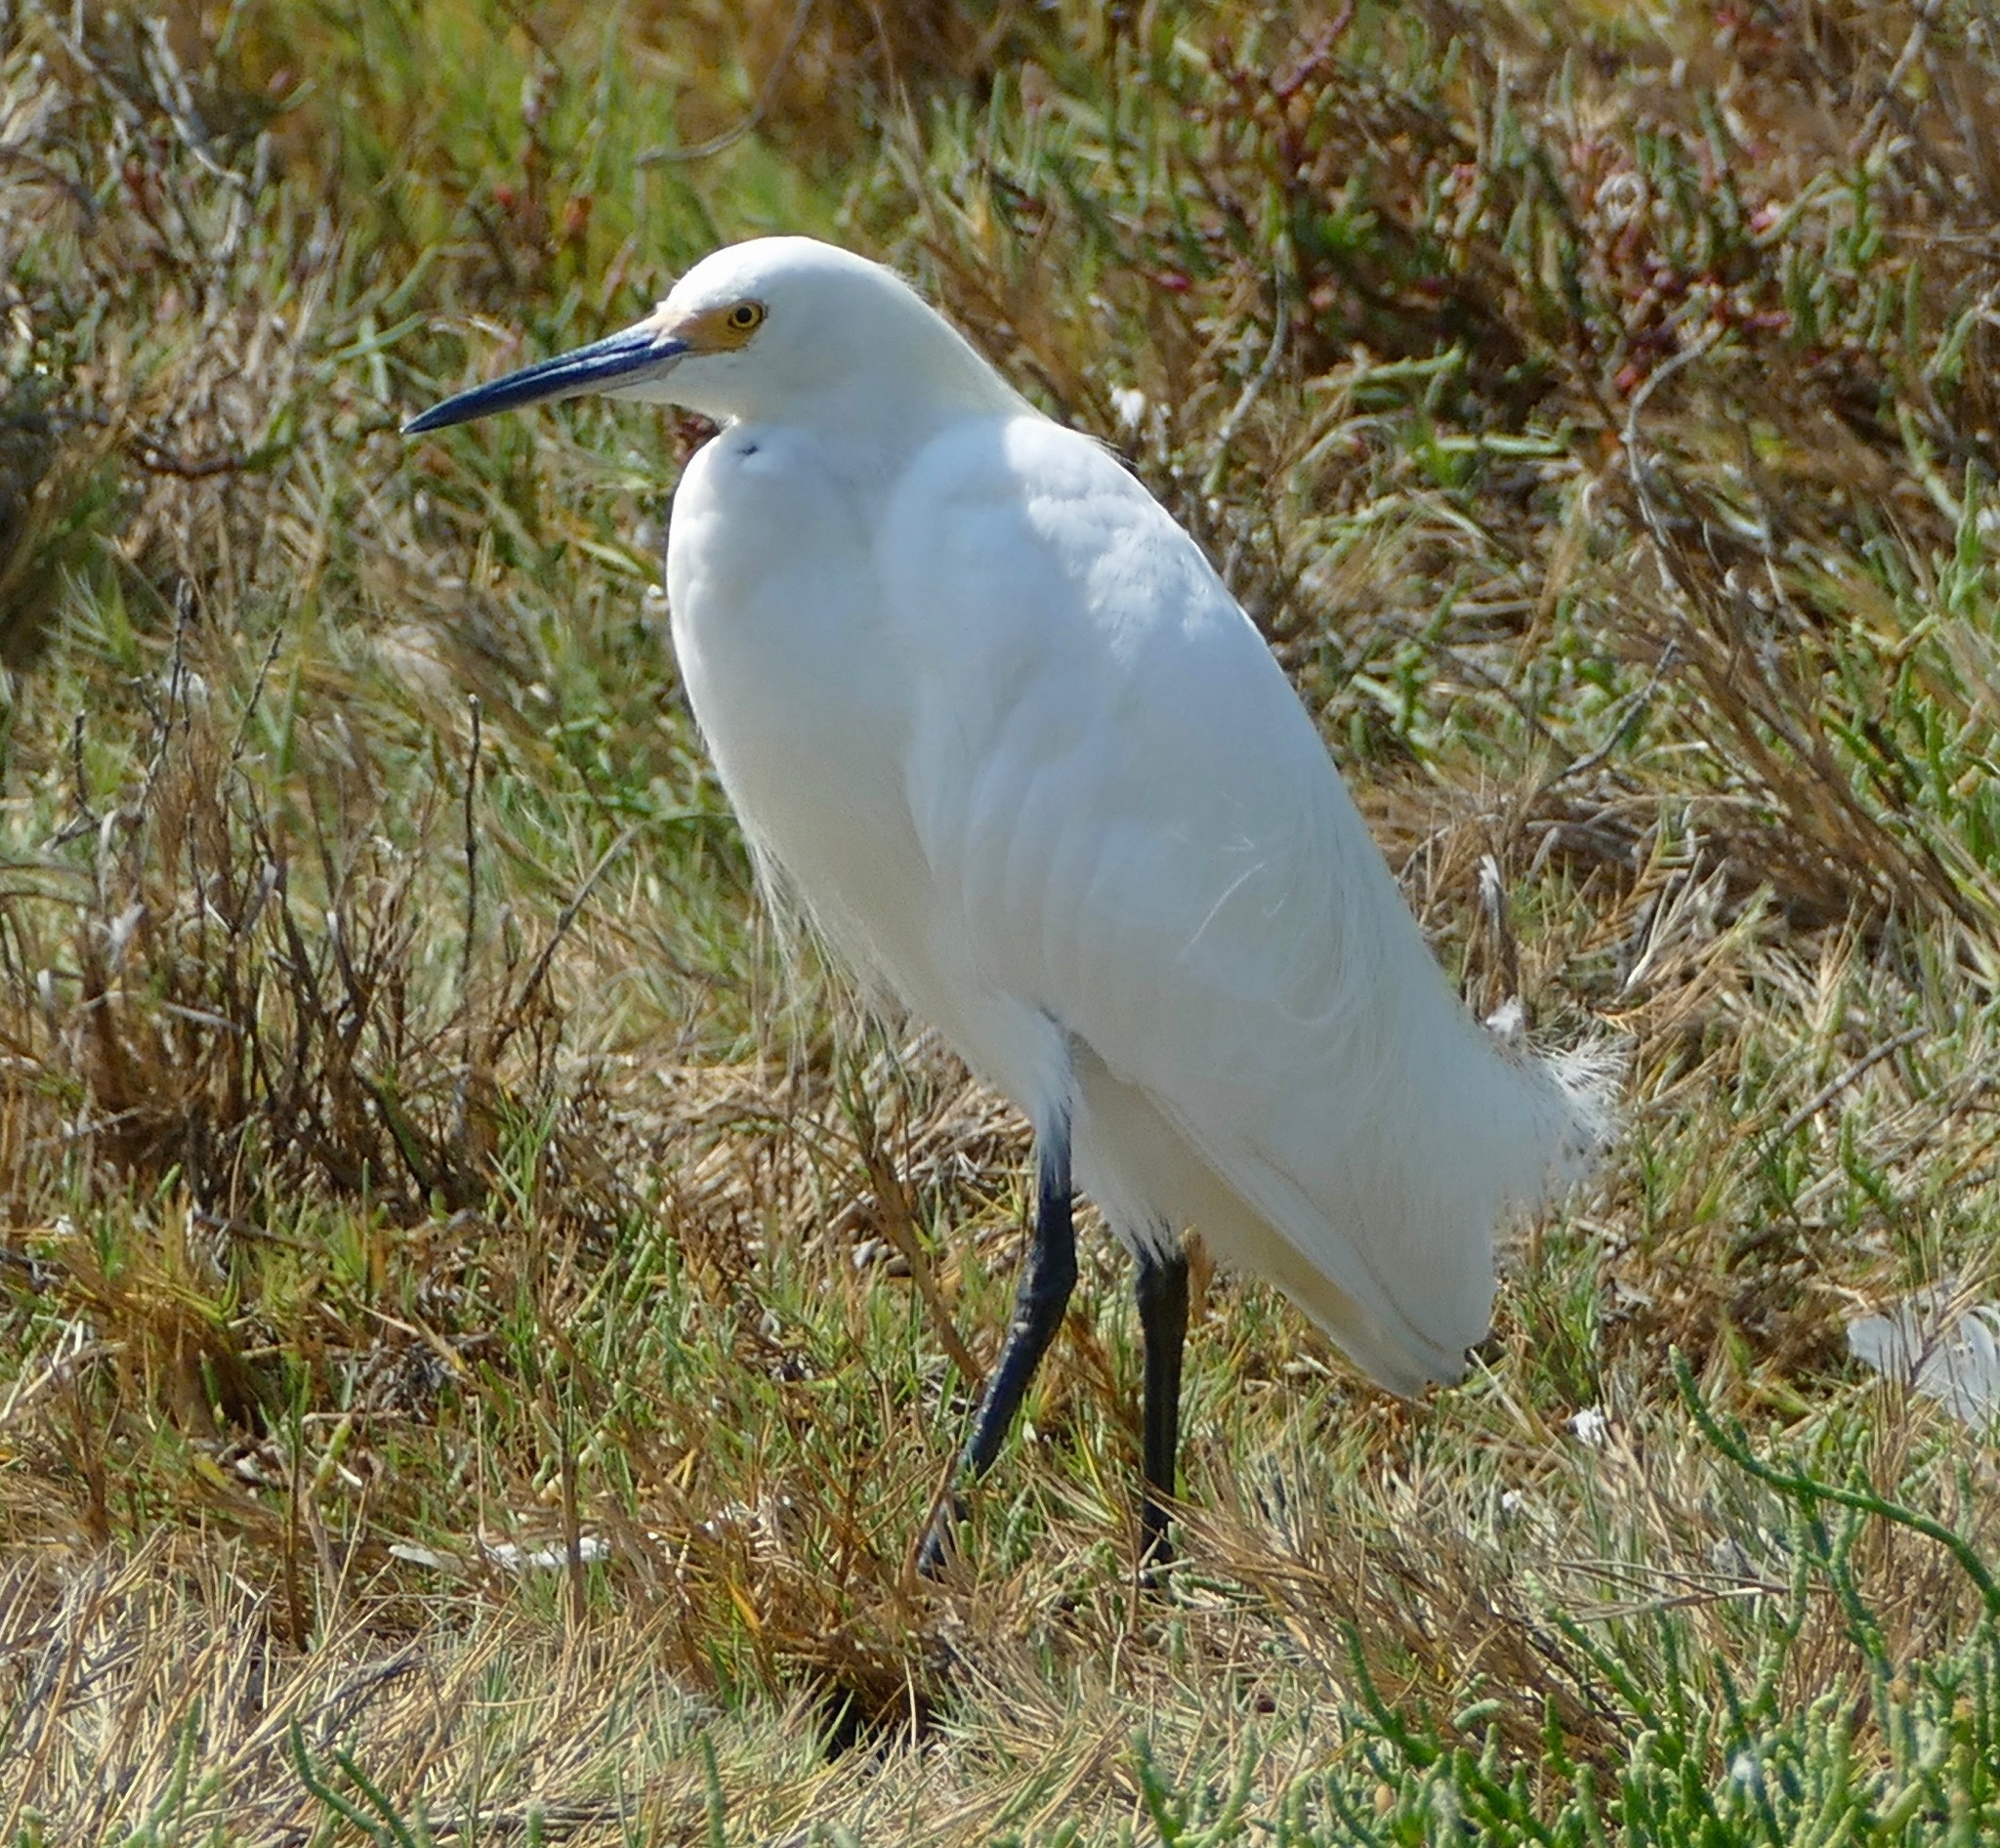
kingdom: Animalia
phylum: Chordata
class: Aves
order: Pelecaniformes
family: Ardeidae
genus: Egretta
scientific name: Egretta thula
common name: Snowy egret
